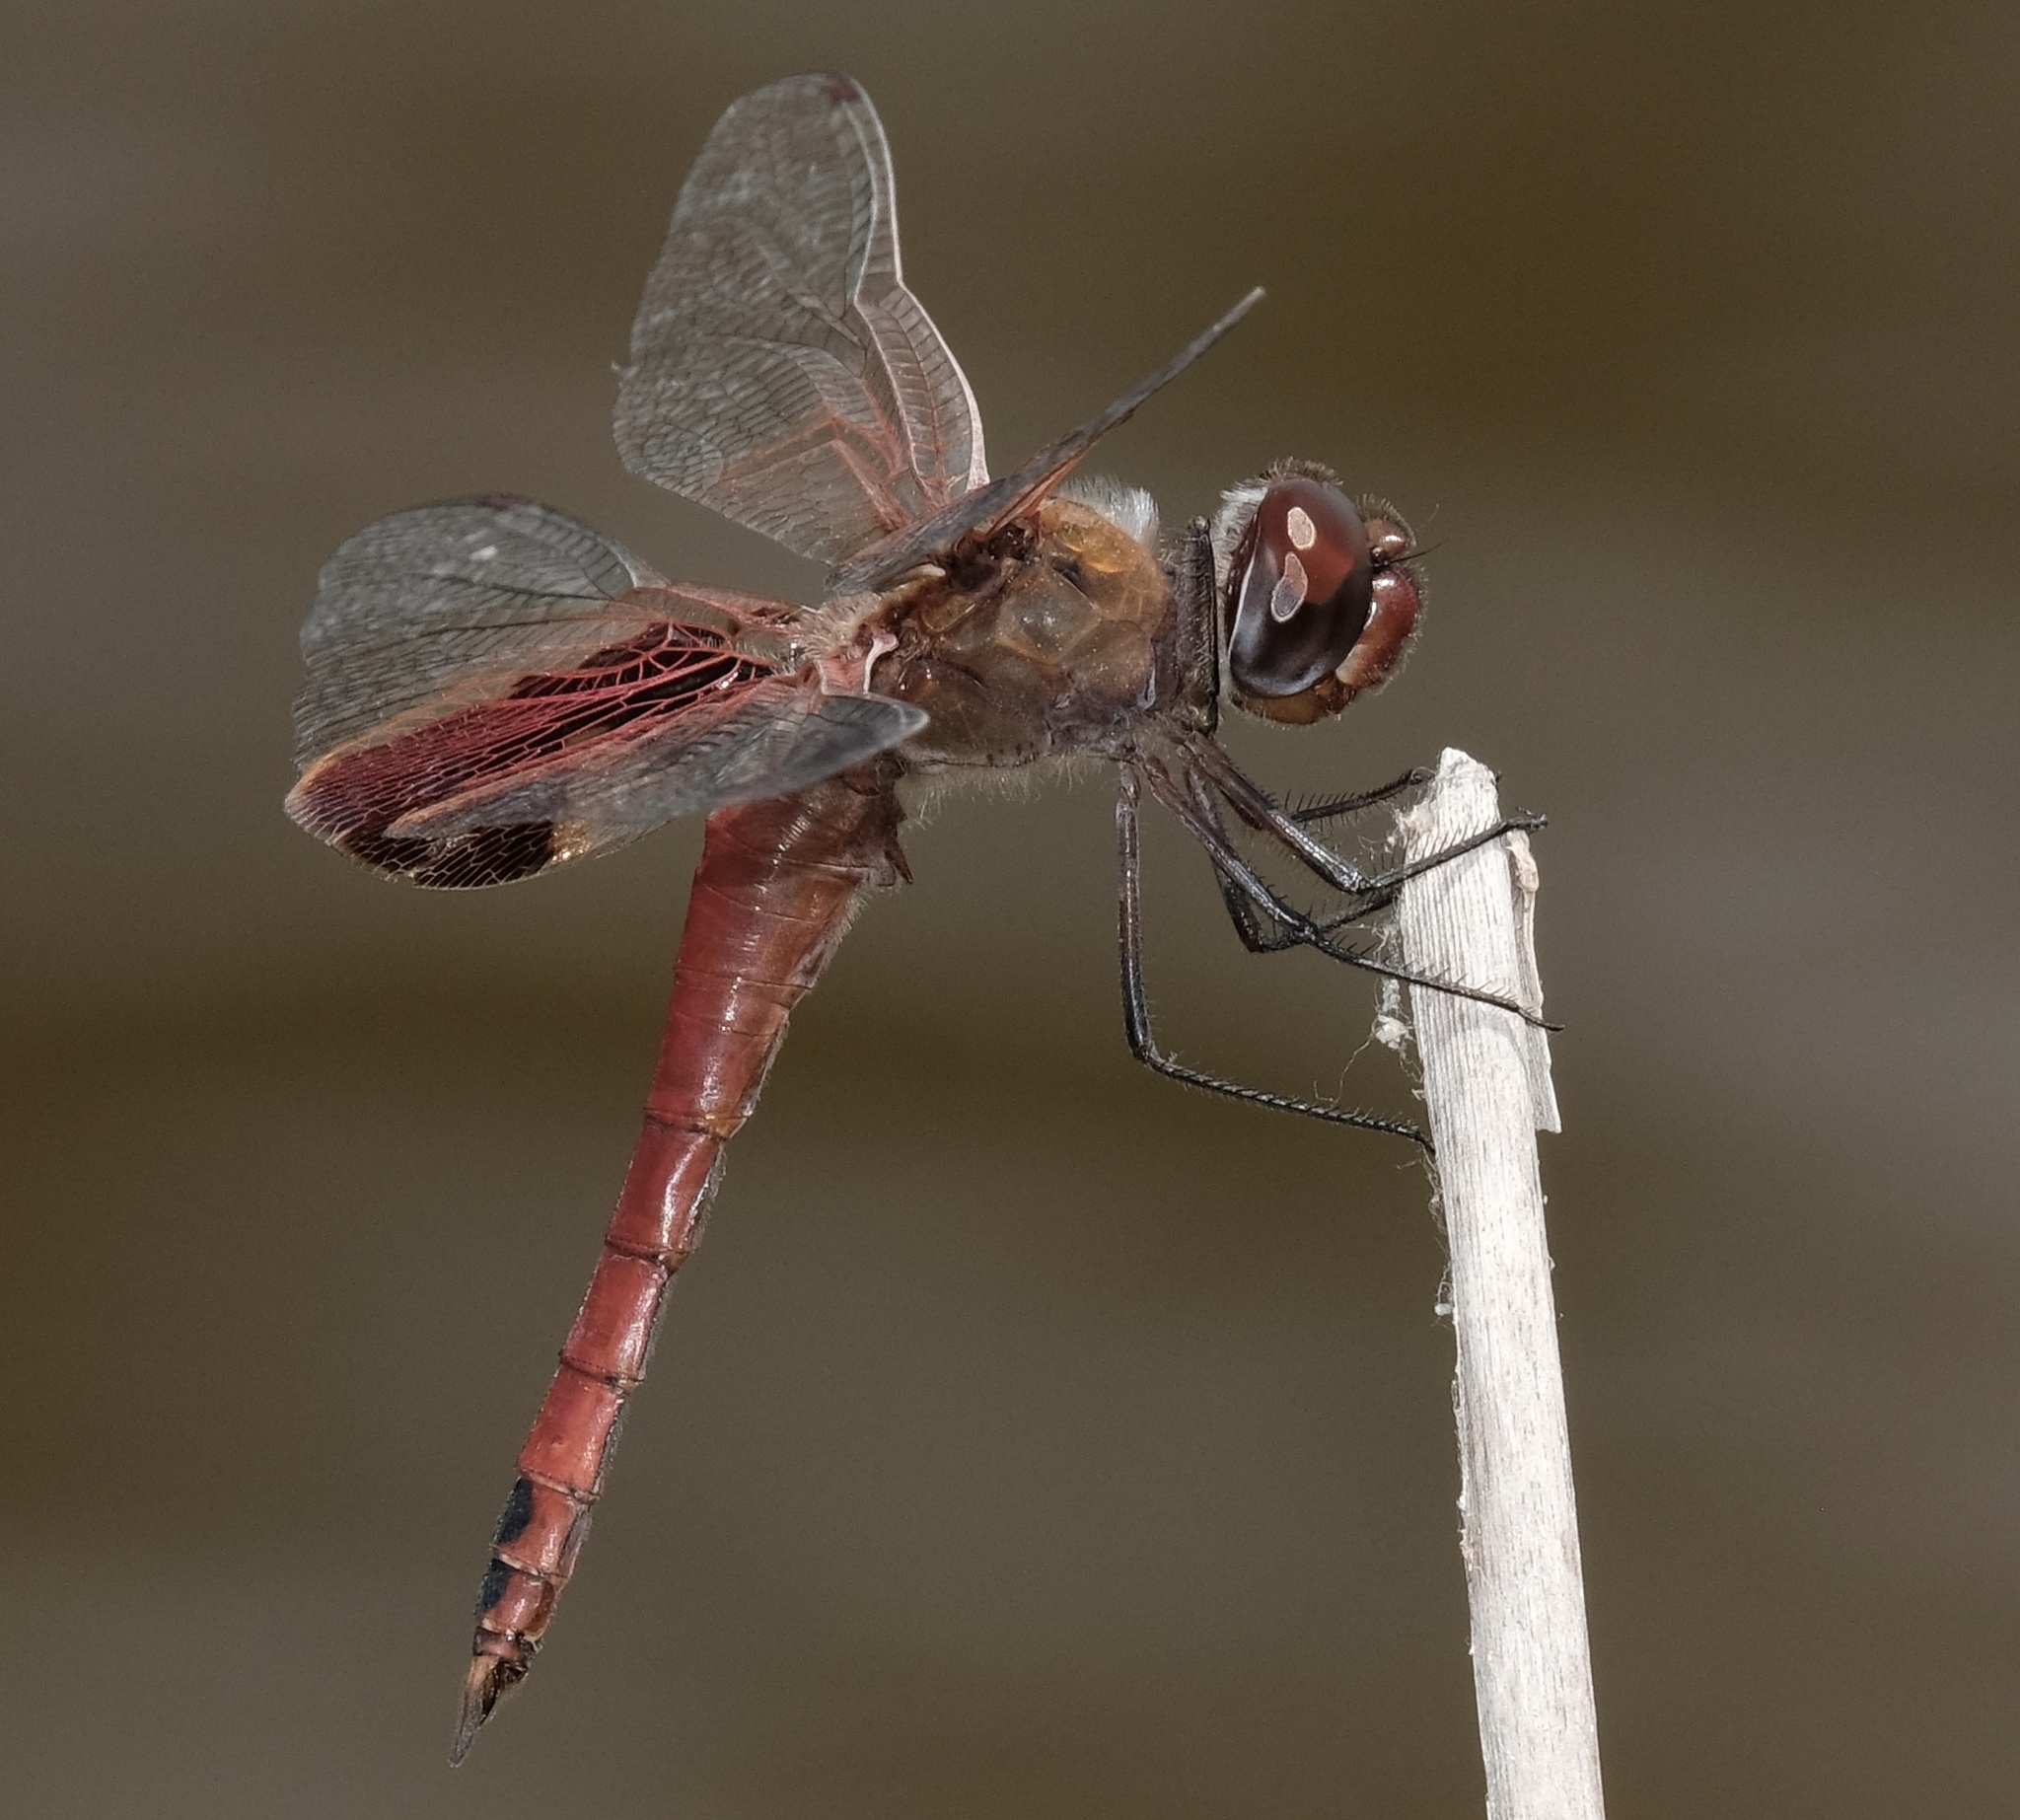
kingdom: Animalia
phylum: Arthropoda
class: Insecta
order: Odonata
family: Libellulidae
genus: Tramea
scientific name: Tramea onusta
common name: Red saddlebags
